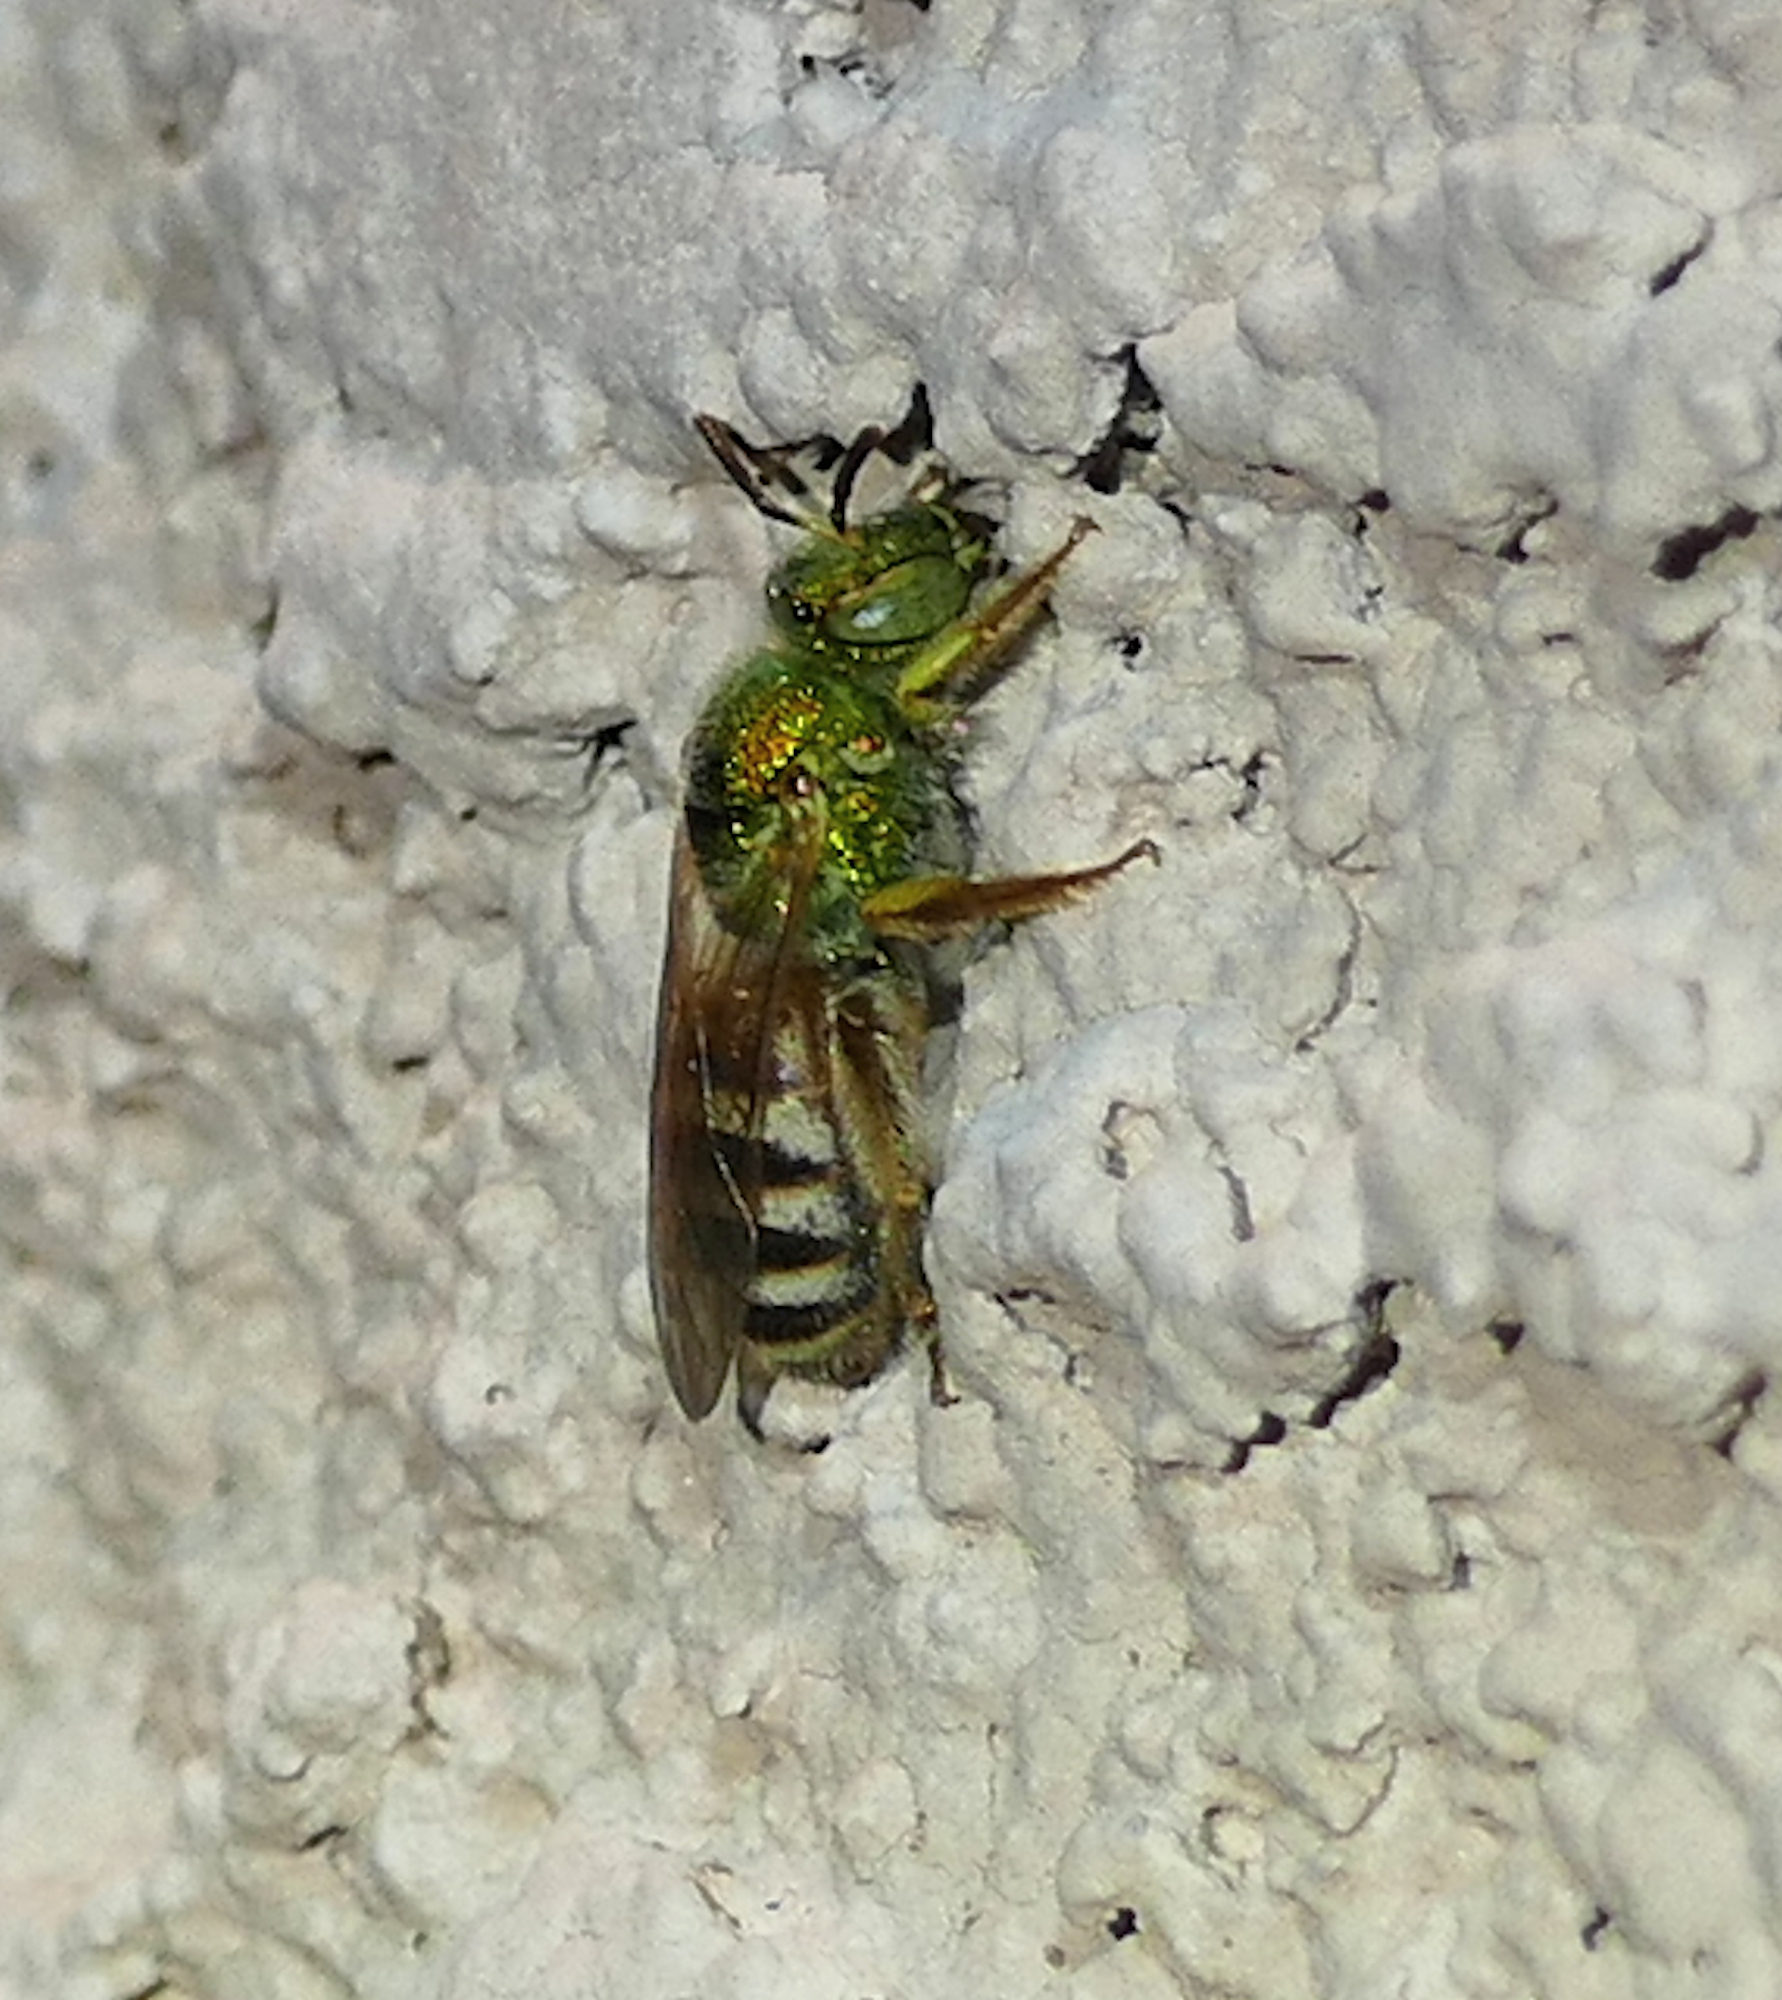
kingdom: Animalia
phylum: Arthropoda
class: Insecta
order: Hymenoptera
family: Halictidae
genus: Agapostemon
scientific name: Agapostemon melliventris
